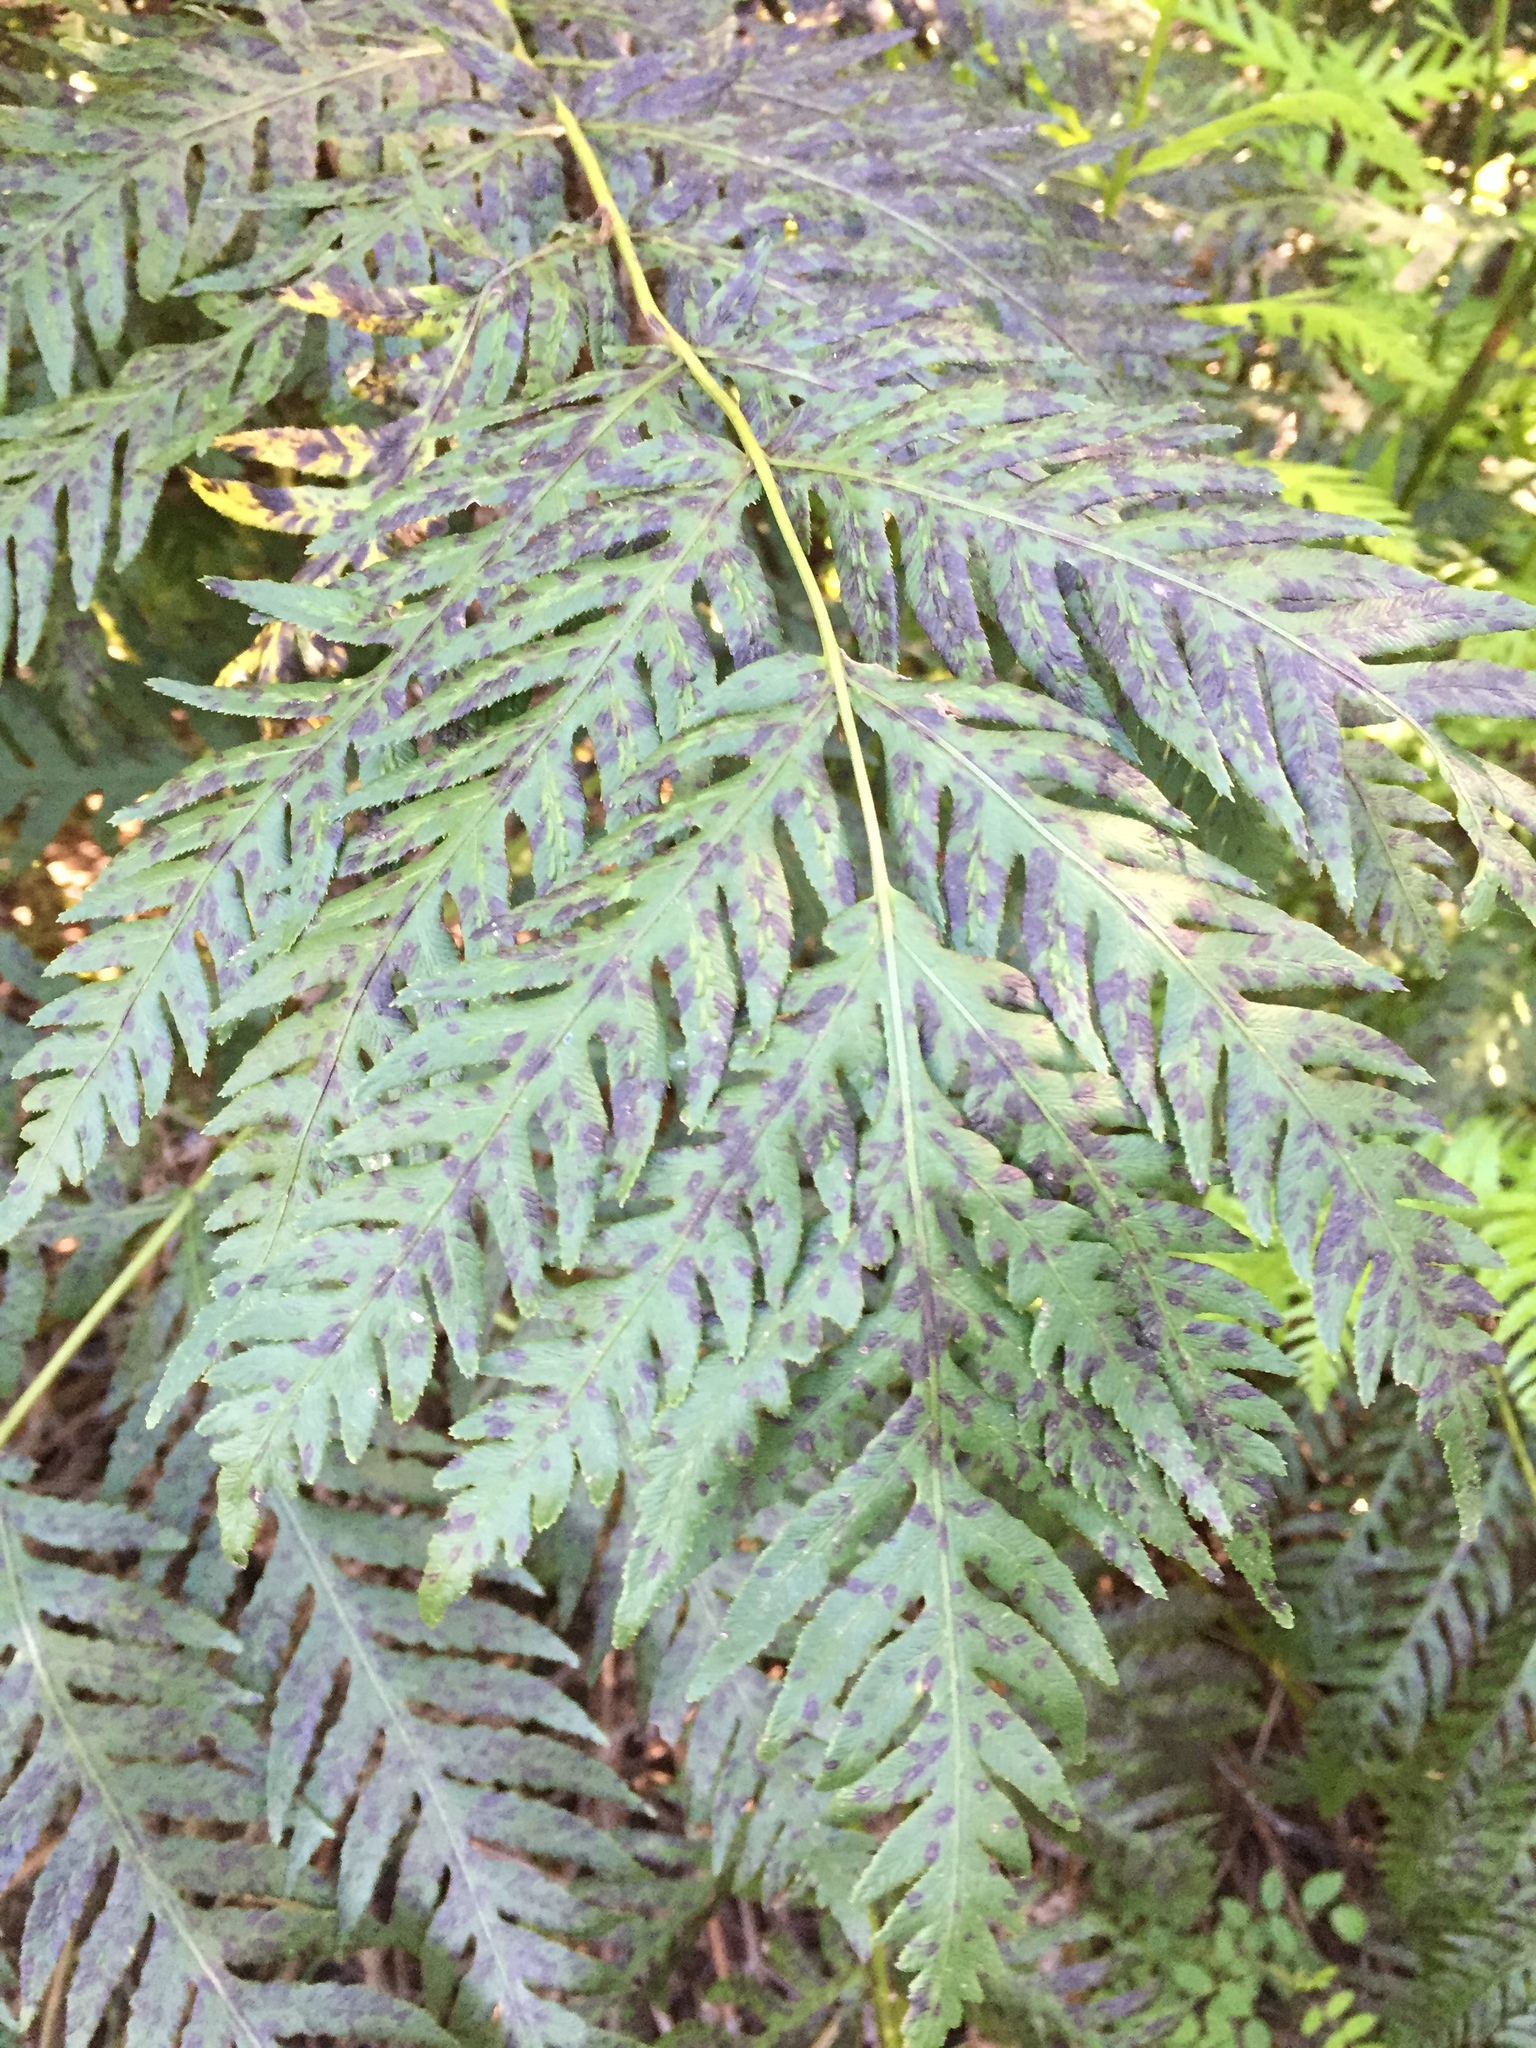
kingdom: Plantae
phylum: Tracheophyta
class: Polypodiopsida
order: Polypodiales
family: Blechnaceae
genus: Woodwardia
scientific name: Woodwardia fimbriata
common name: Giant chain fern
